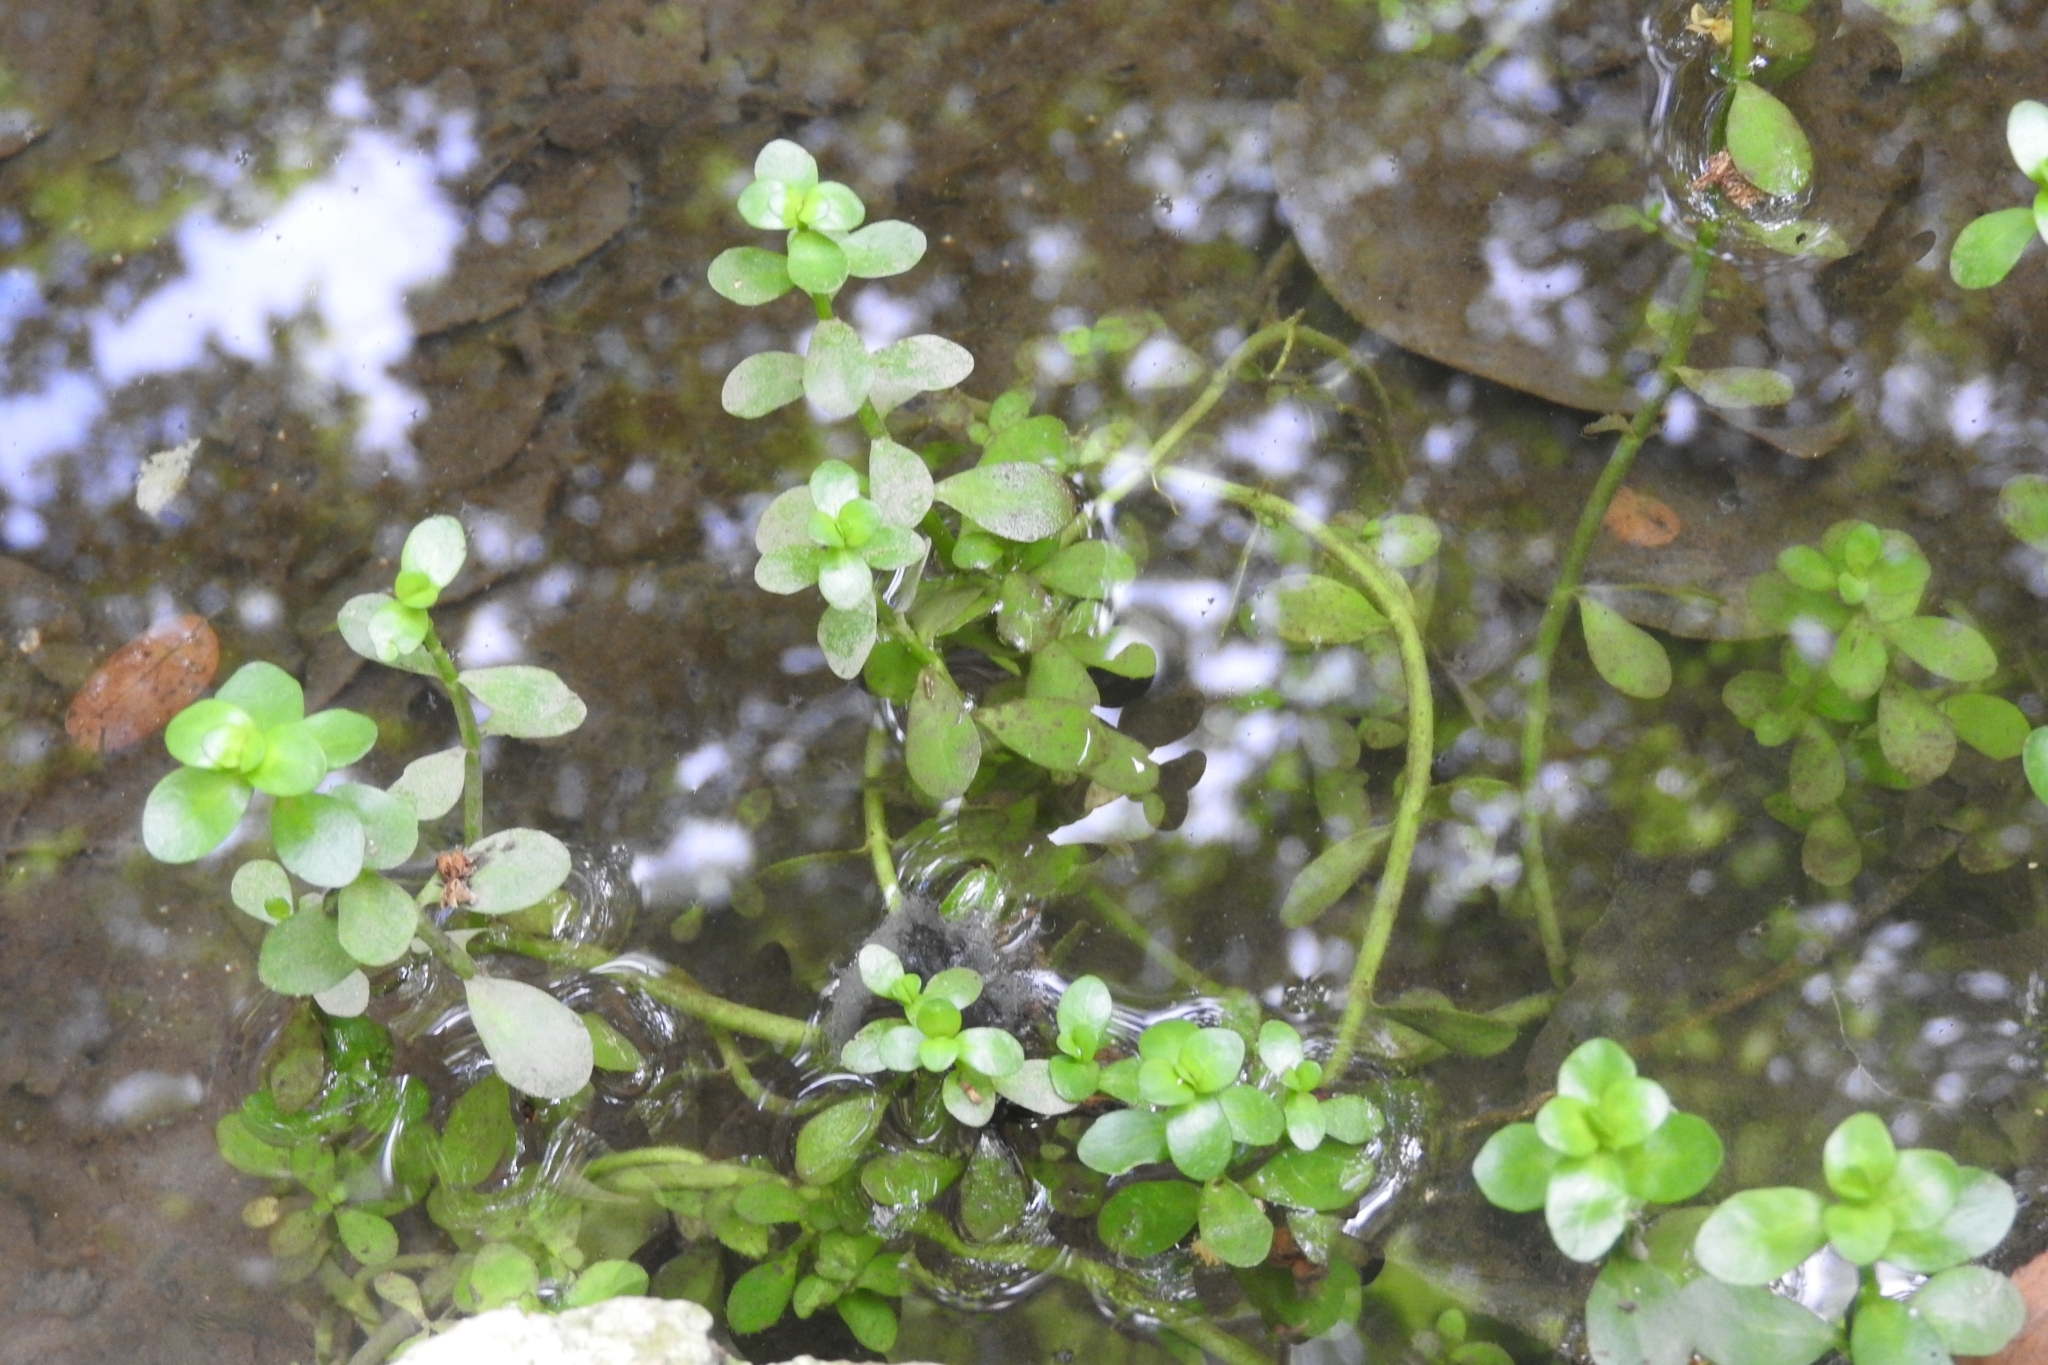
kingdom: Plantae
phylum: Tracheophyta
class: Magnoliopsida
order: Lamiales
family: Plantaginaceae
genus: Bacopa
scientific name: Bacopa monnieri
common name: Indian-pennywort
